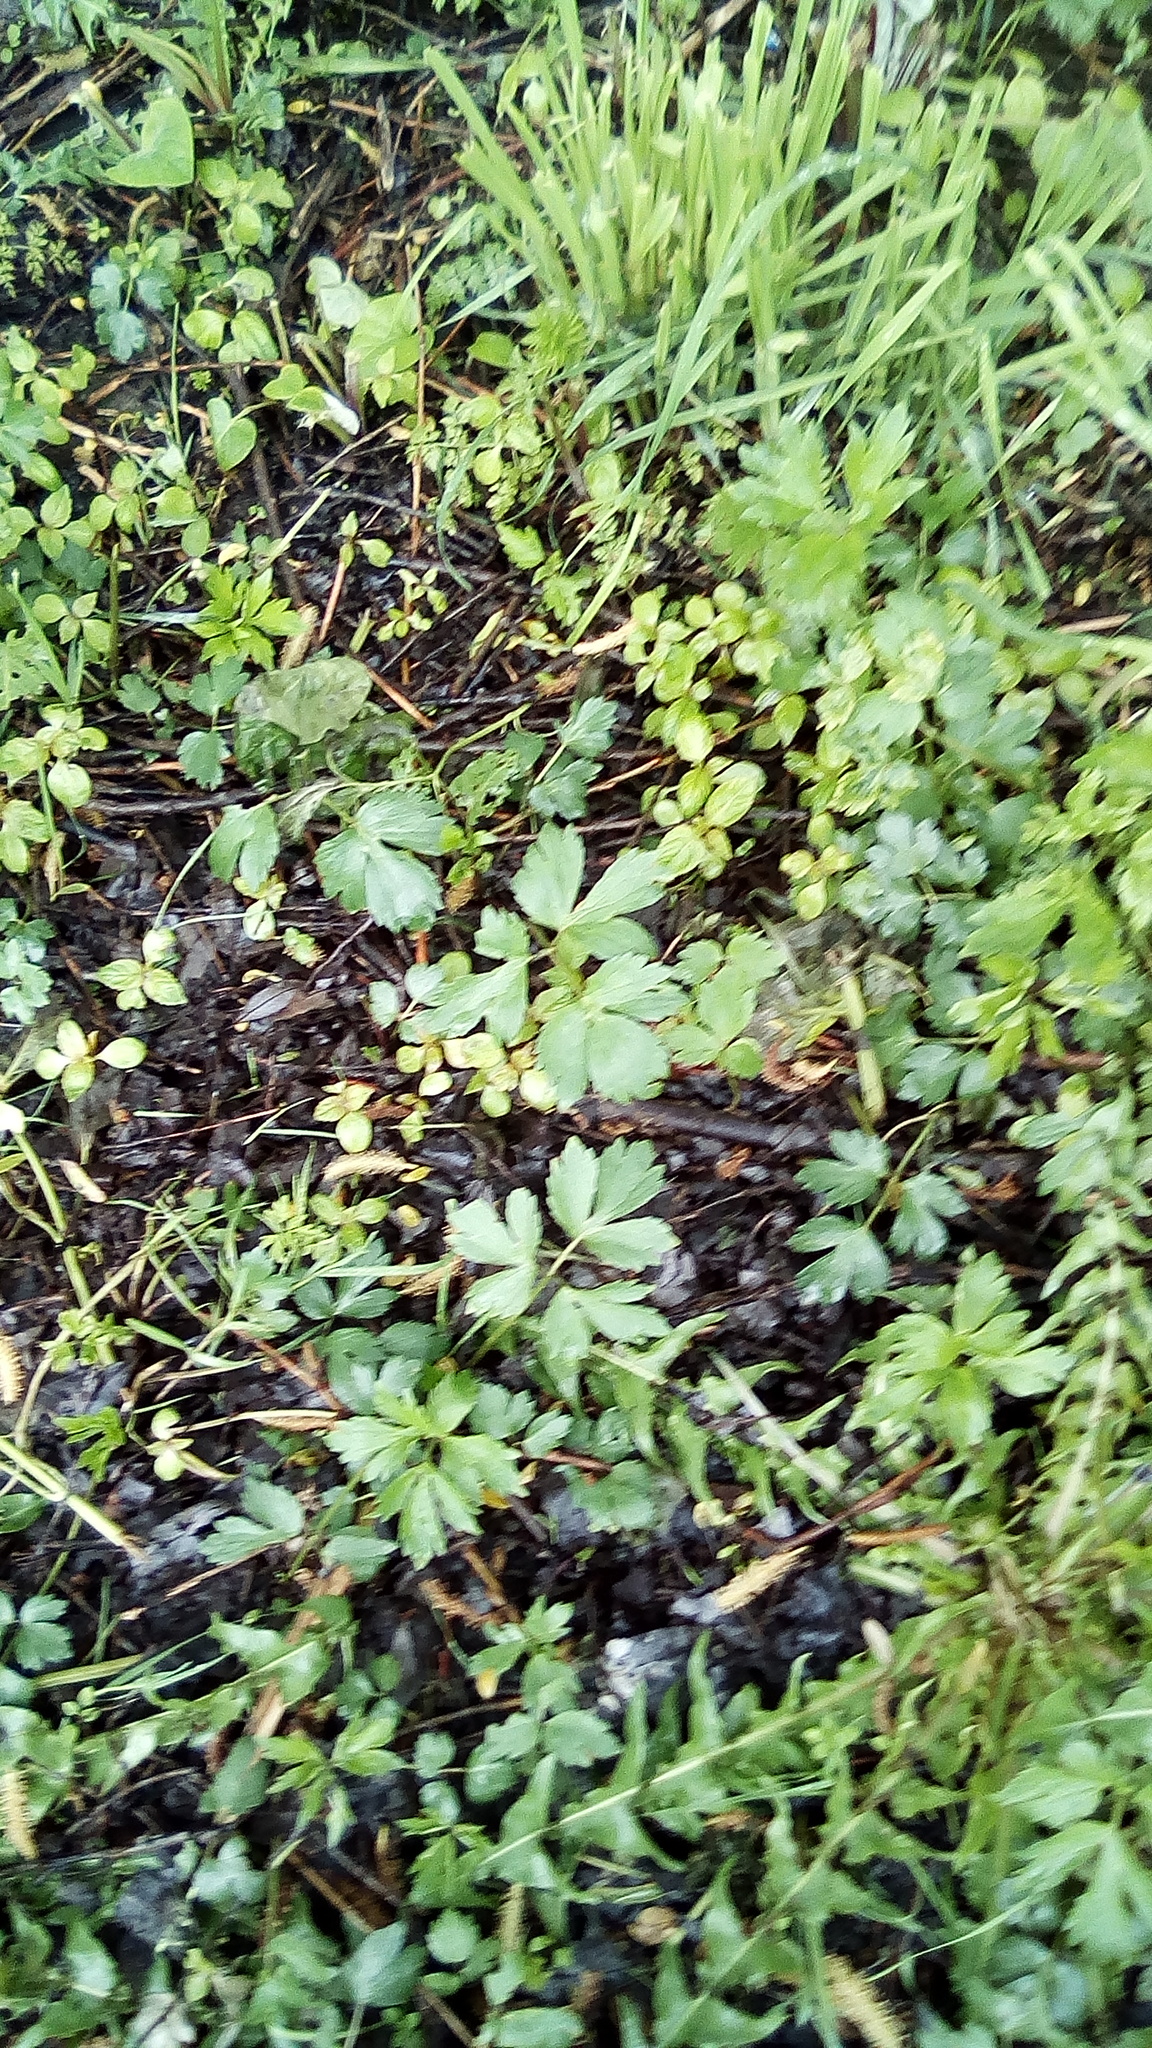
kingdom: Plantae
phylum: Tracheophyta
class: Magnoliopsida
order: Ranunculales
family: Ranunculaceae
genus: Ranunculus
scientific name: Ranunculus repens
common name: Creeping buttercup
